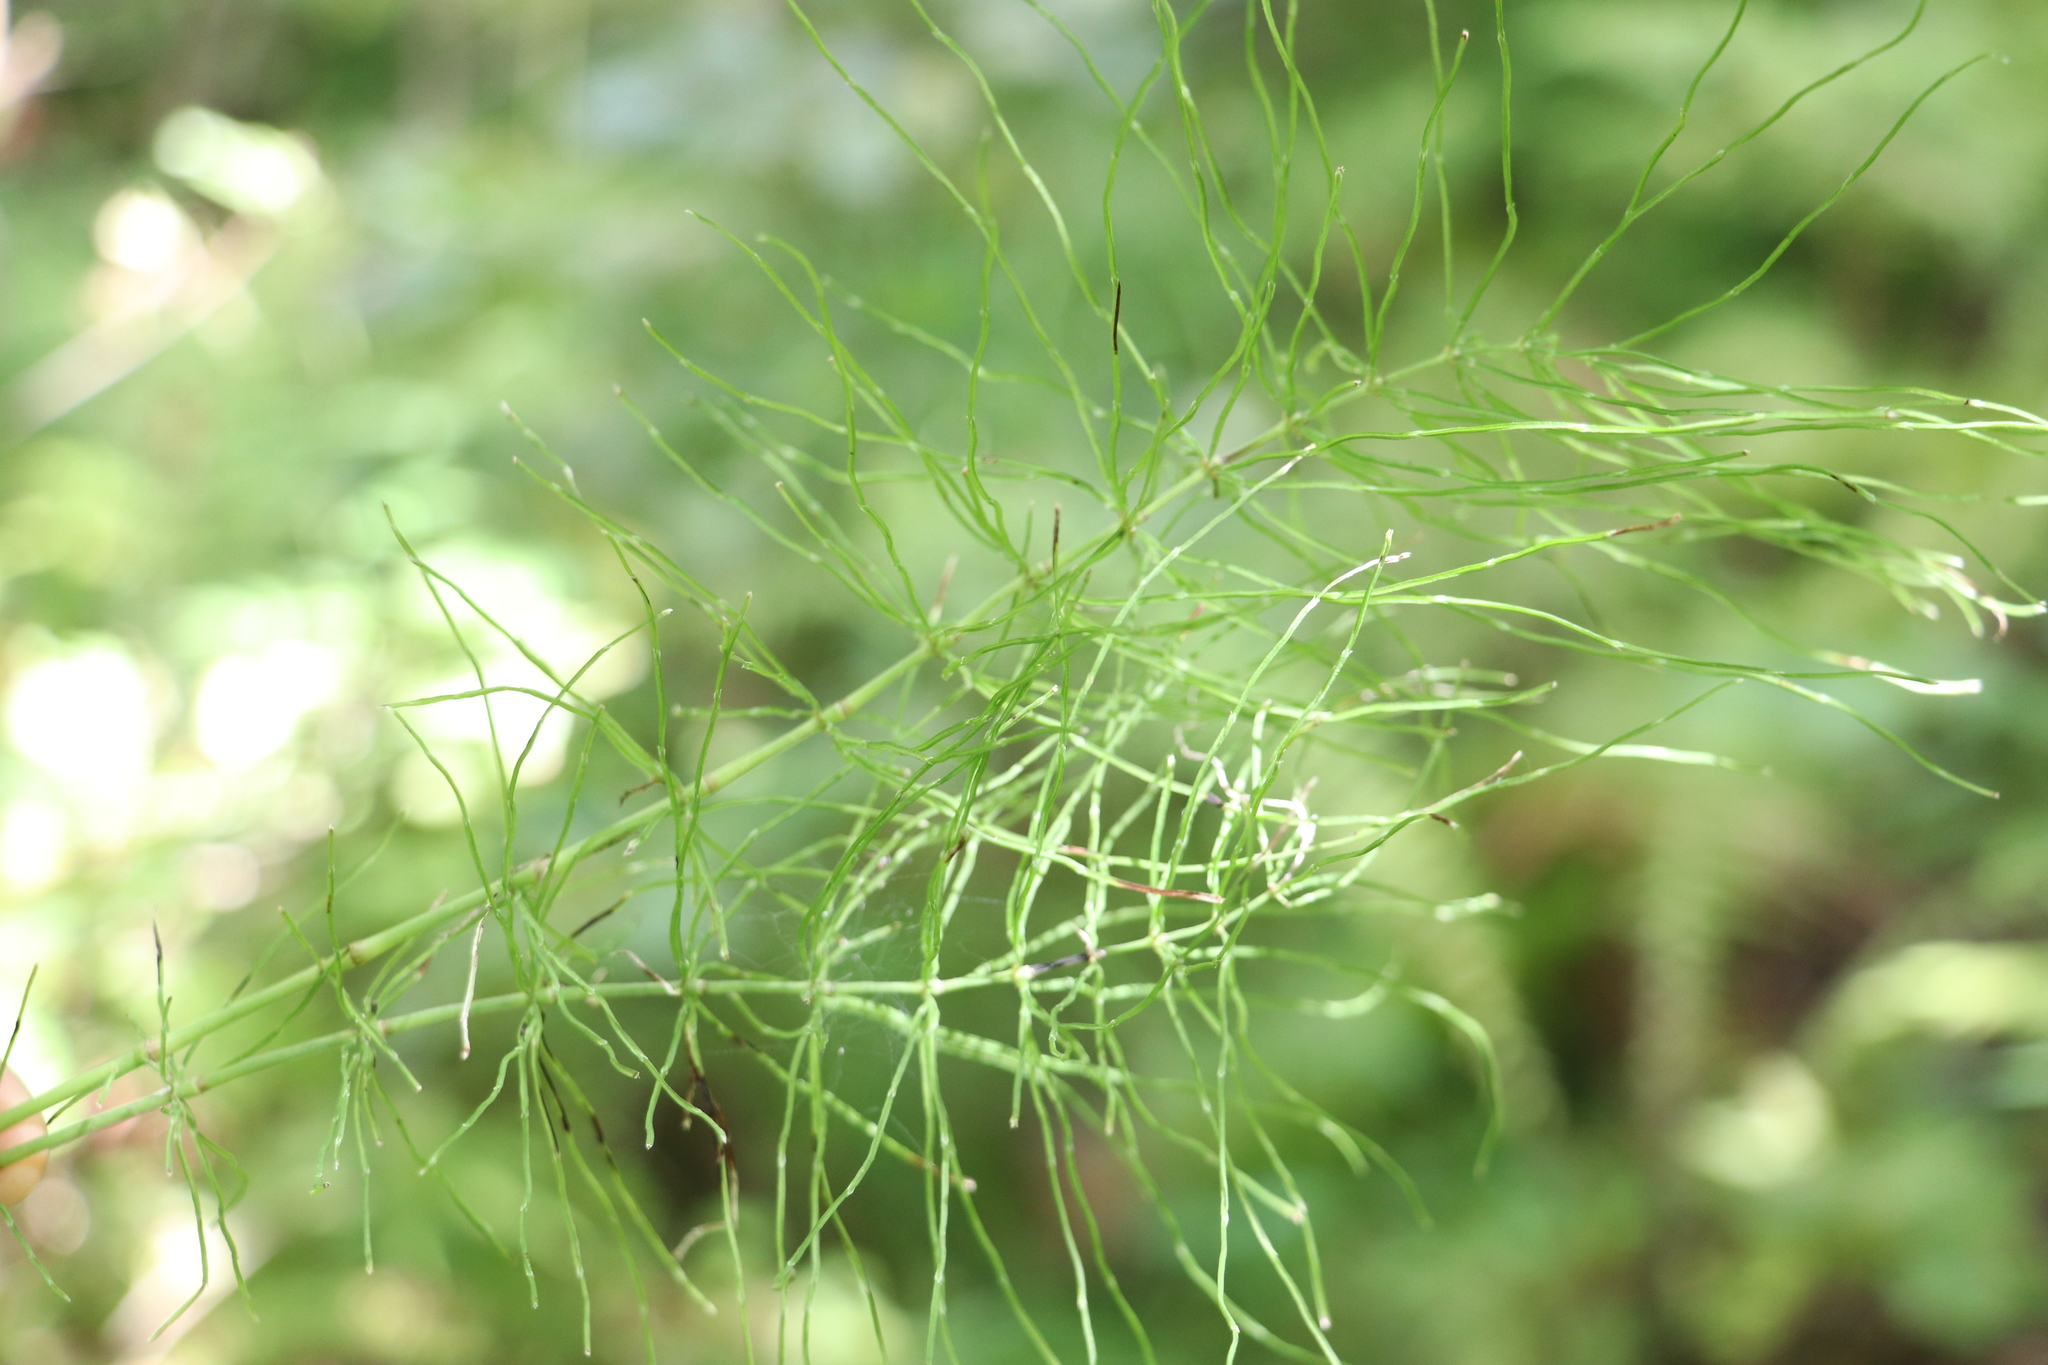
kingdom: Plantae
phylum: Tracheophyta
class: Polypodiopsida
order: Equisetales
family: Equisetaceae
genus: Equisetum
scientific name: Equisetum pratense
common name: Meadow horsetail
